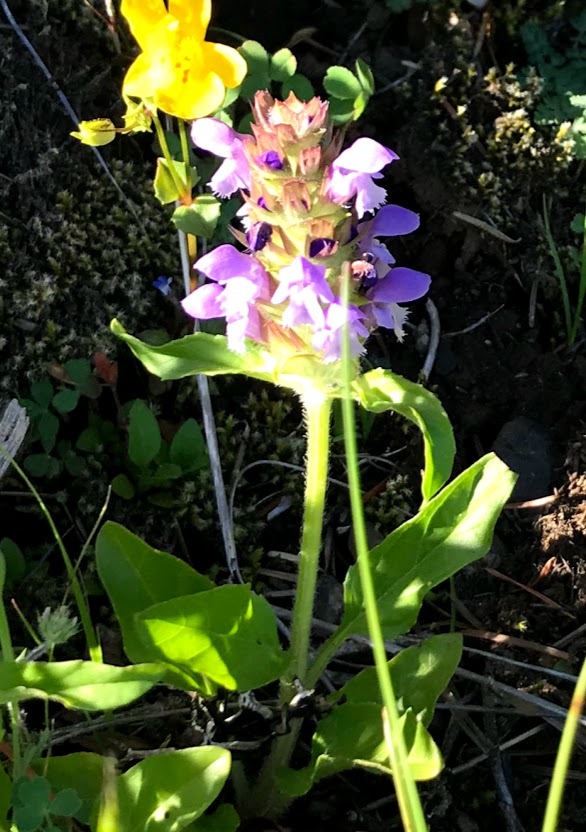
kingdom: Plantae
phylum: Tracheophyta
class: Magnoliopsida
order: Lamiales
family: Lamiaceae
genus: Prunella
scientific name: Prunella vulgaris
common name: Heal-all
